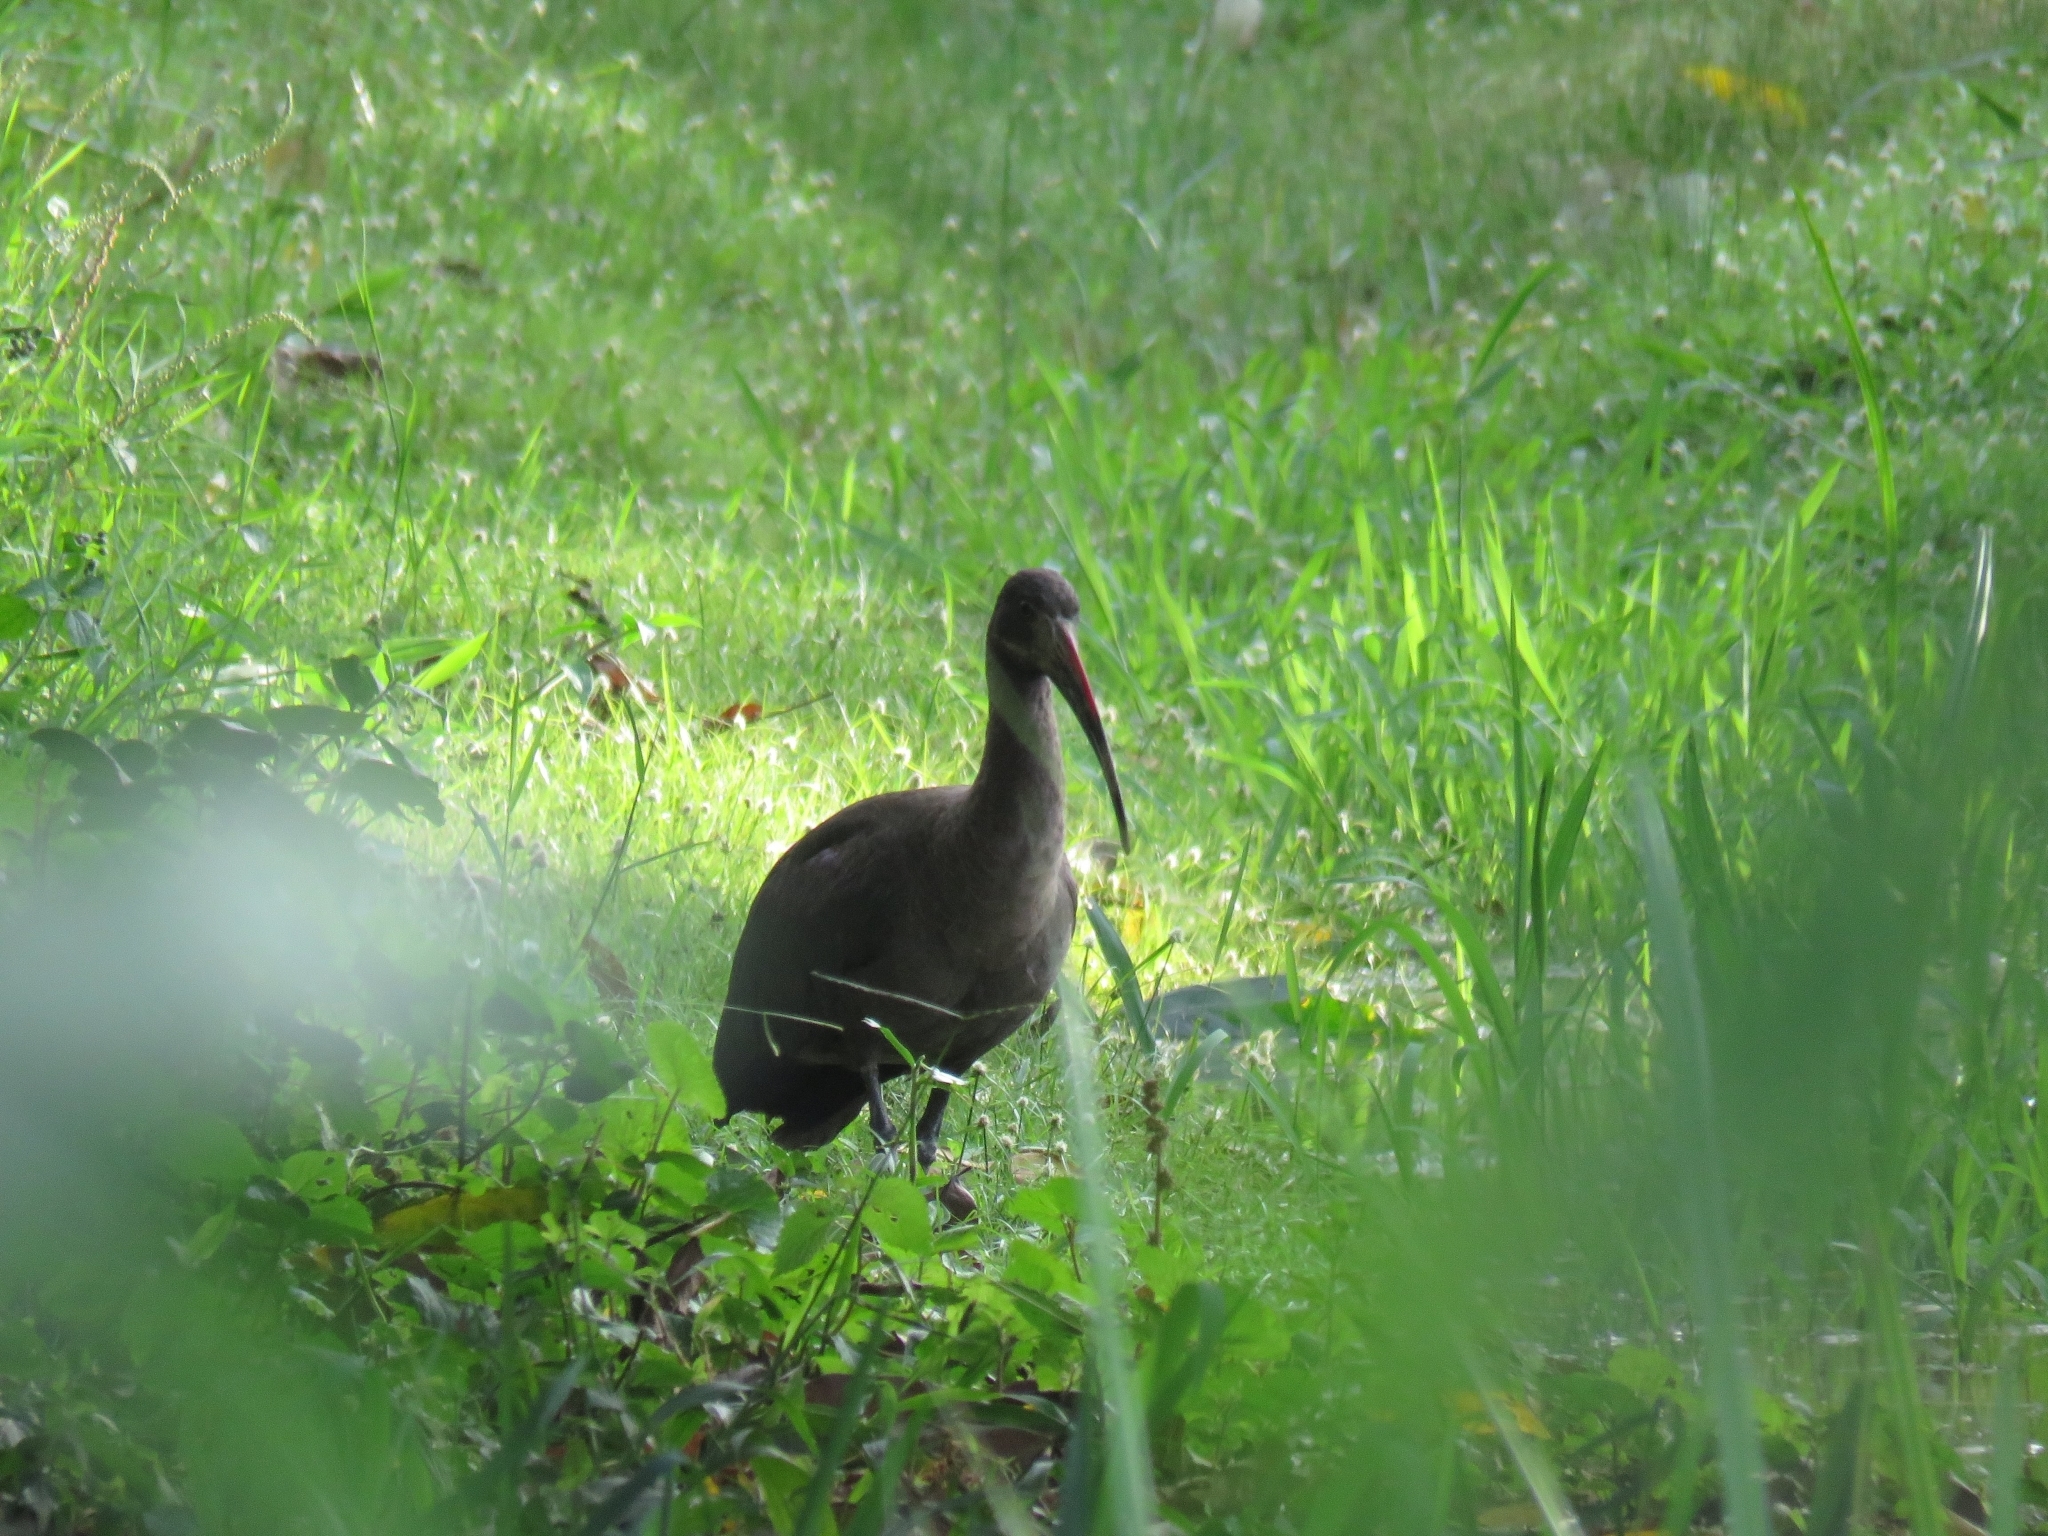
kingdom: Animalia
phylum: Chordata
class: Aves
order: Pelecaniformes
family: Threskiornithidae
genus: Bostrychia
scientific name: Bostrychia hagedash
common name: Hadada ibis
